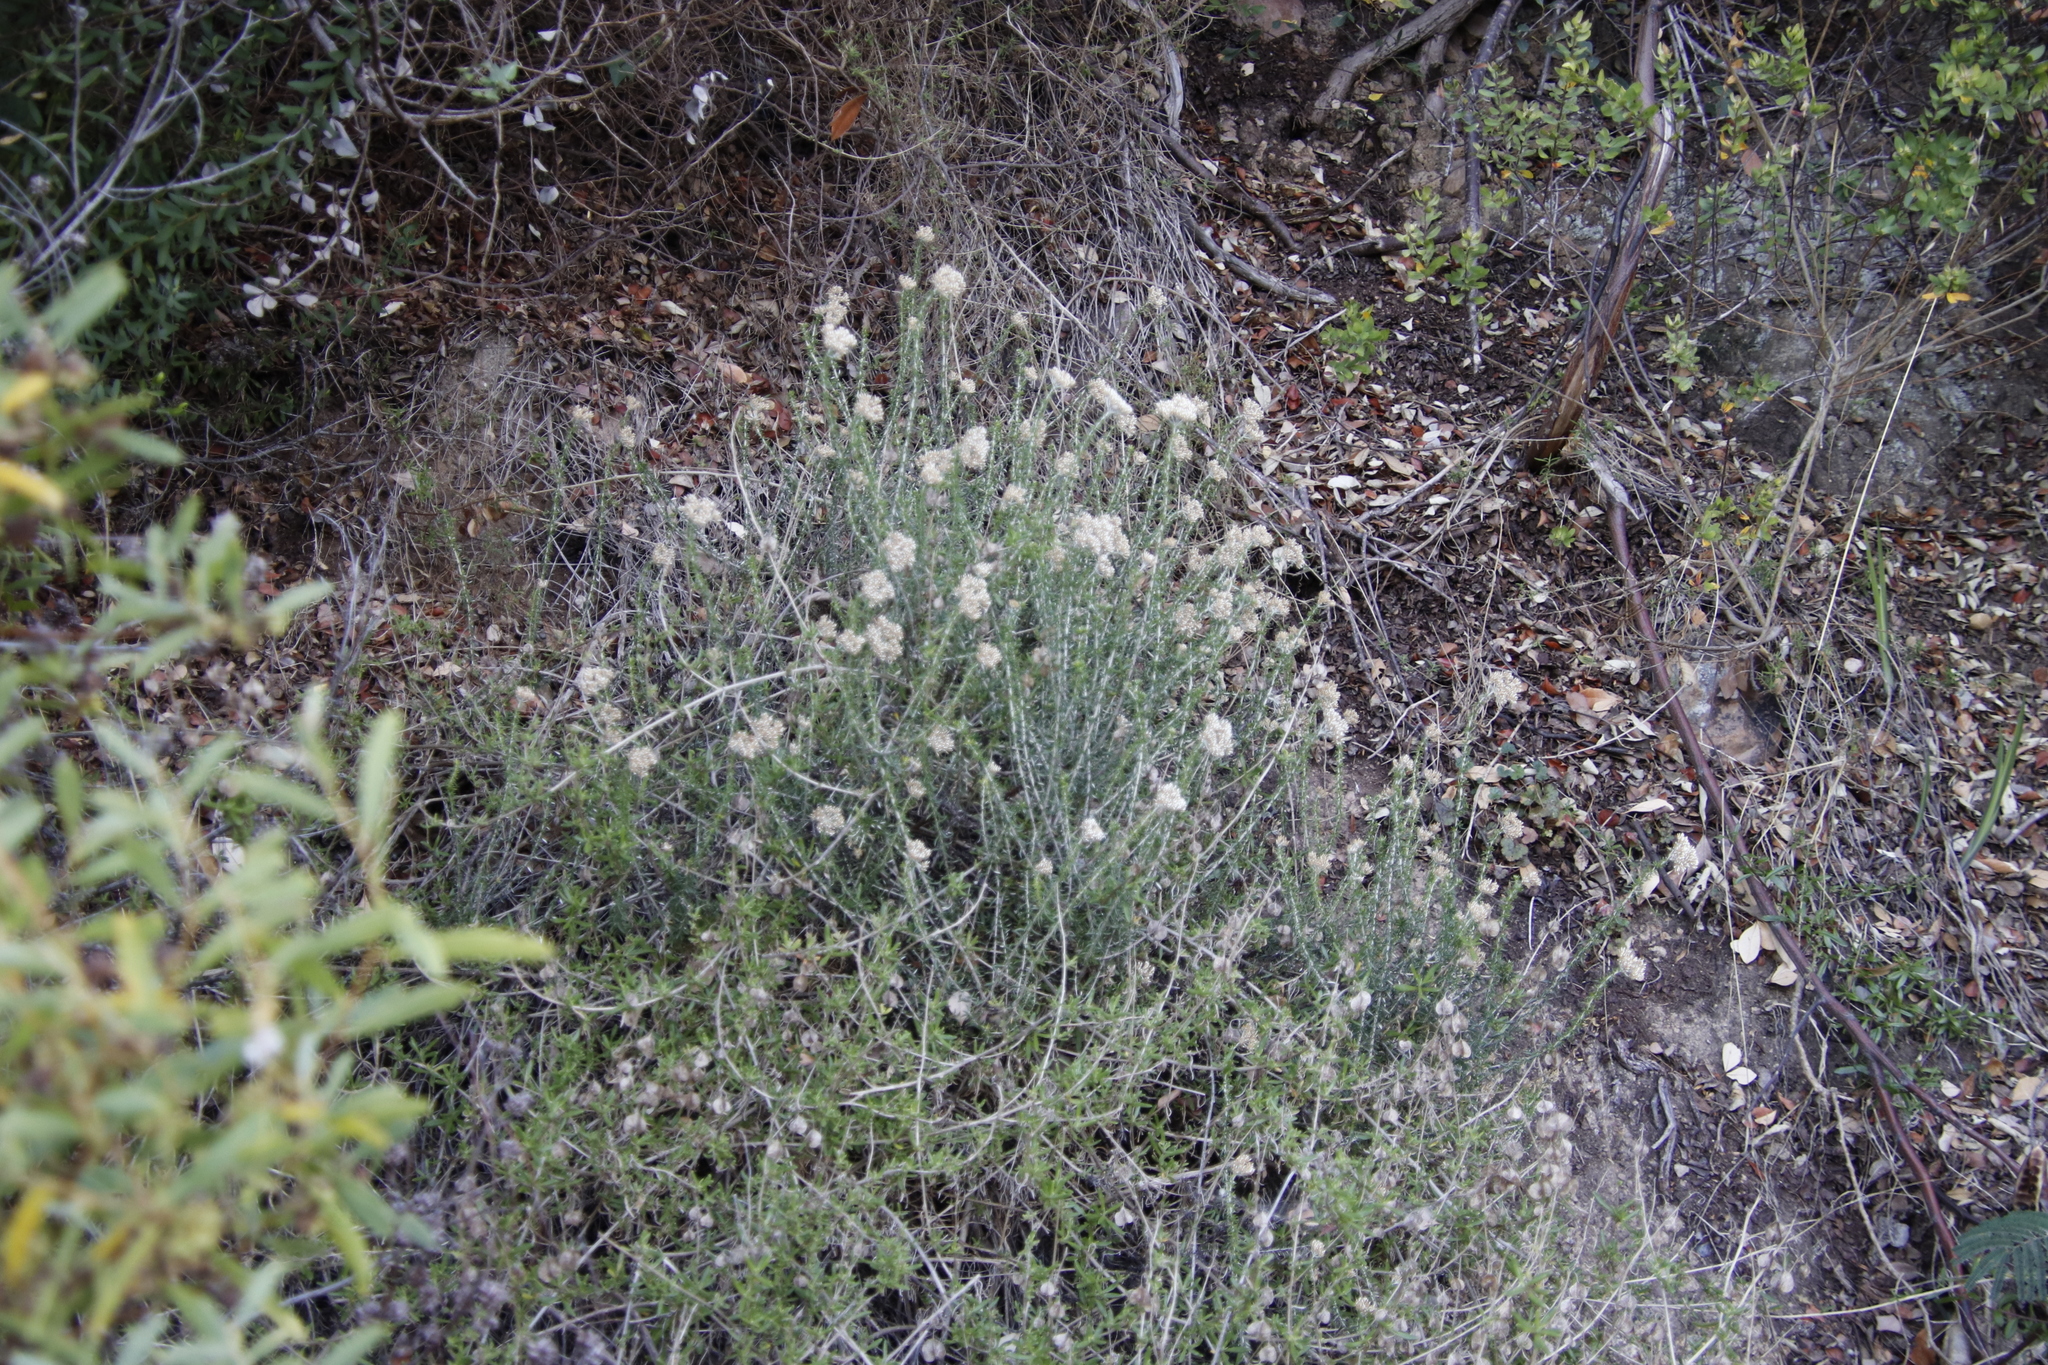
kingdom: Plantae
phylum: Tracheophyta
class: Magnoliopsida
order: Asterales
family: Asteraceae
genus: Metalasia
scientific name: Metalasia densa
